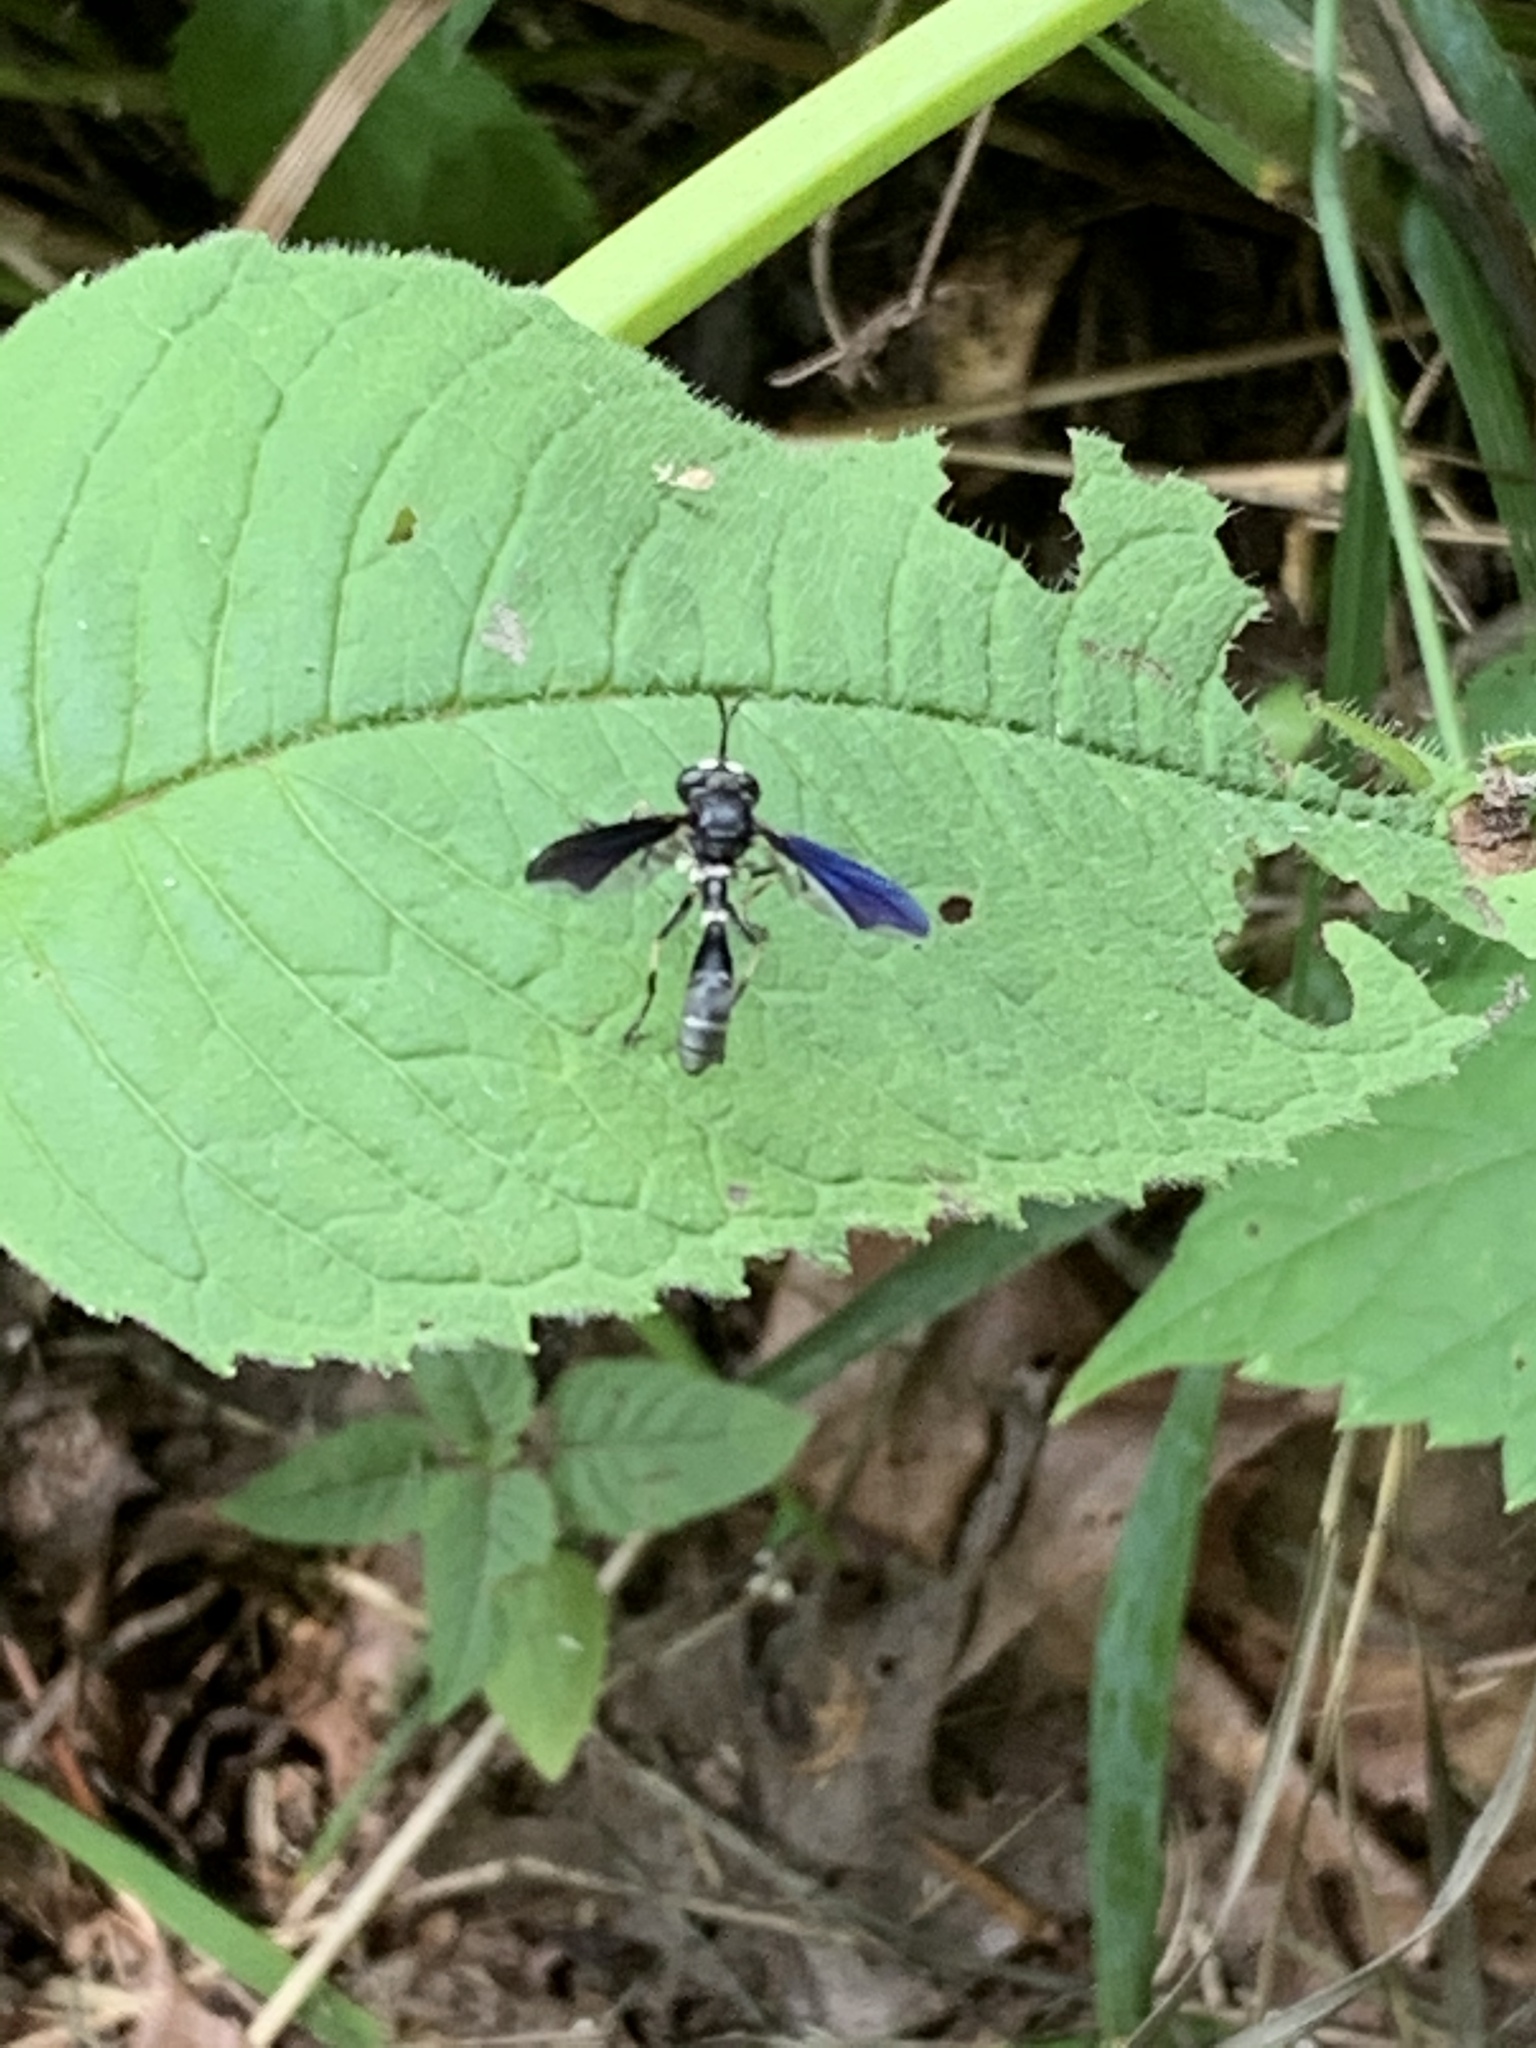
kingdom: Animalia
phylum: Arthropoda
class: Insecta
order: Diptera
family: Conopidae
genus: Physocephala
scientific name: Physocephala tibialis
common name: Common eastern physocephala
